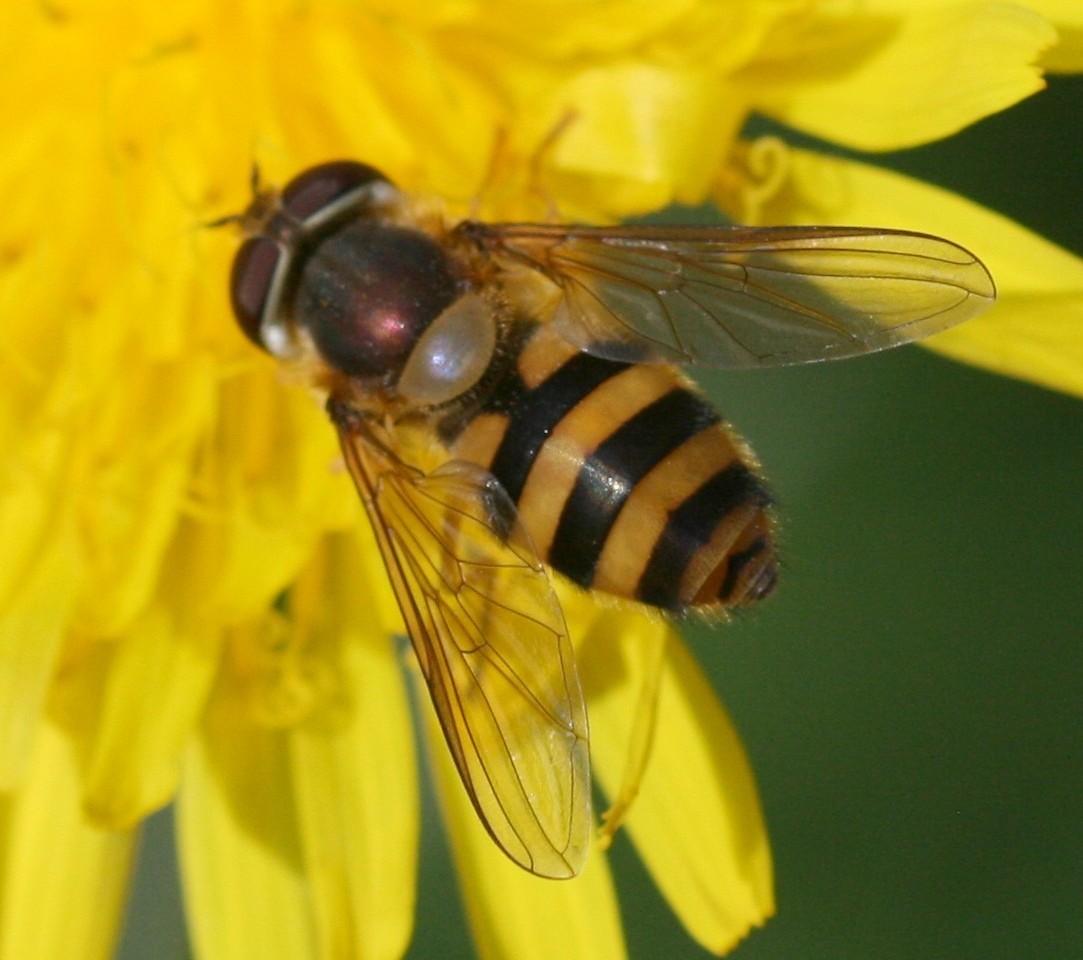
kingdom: Animalia
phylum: Arthropoda
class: Insecta
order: Diptera
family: Syrphidae
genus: Epistrophe
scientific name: Epistrophe grossulariae
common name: Black-horned smoothtail
